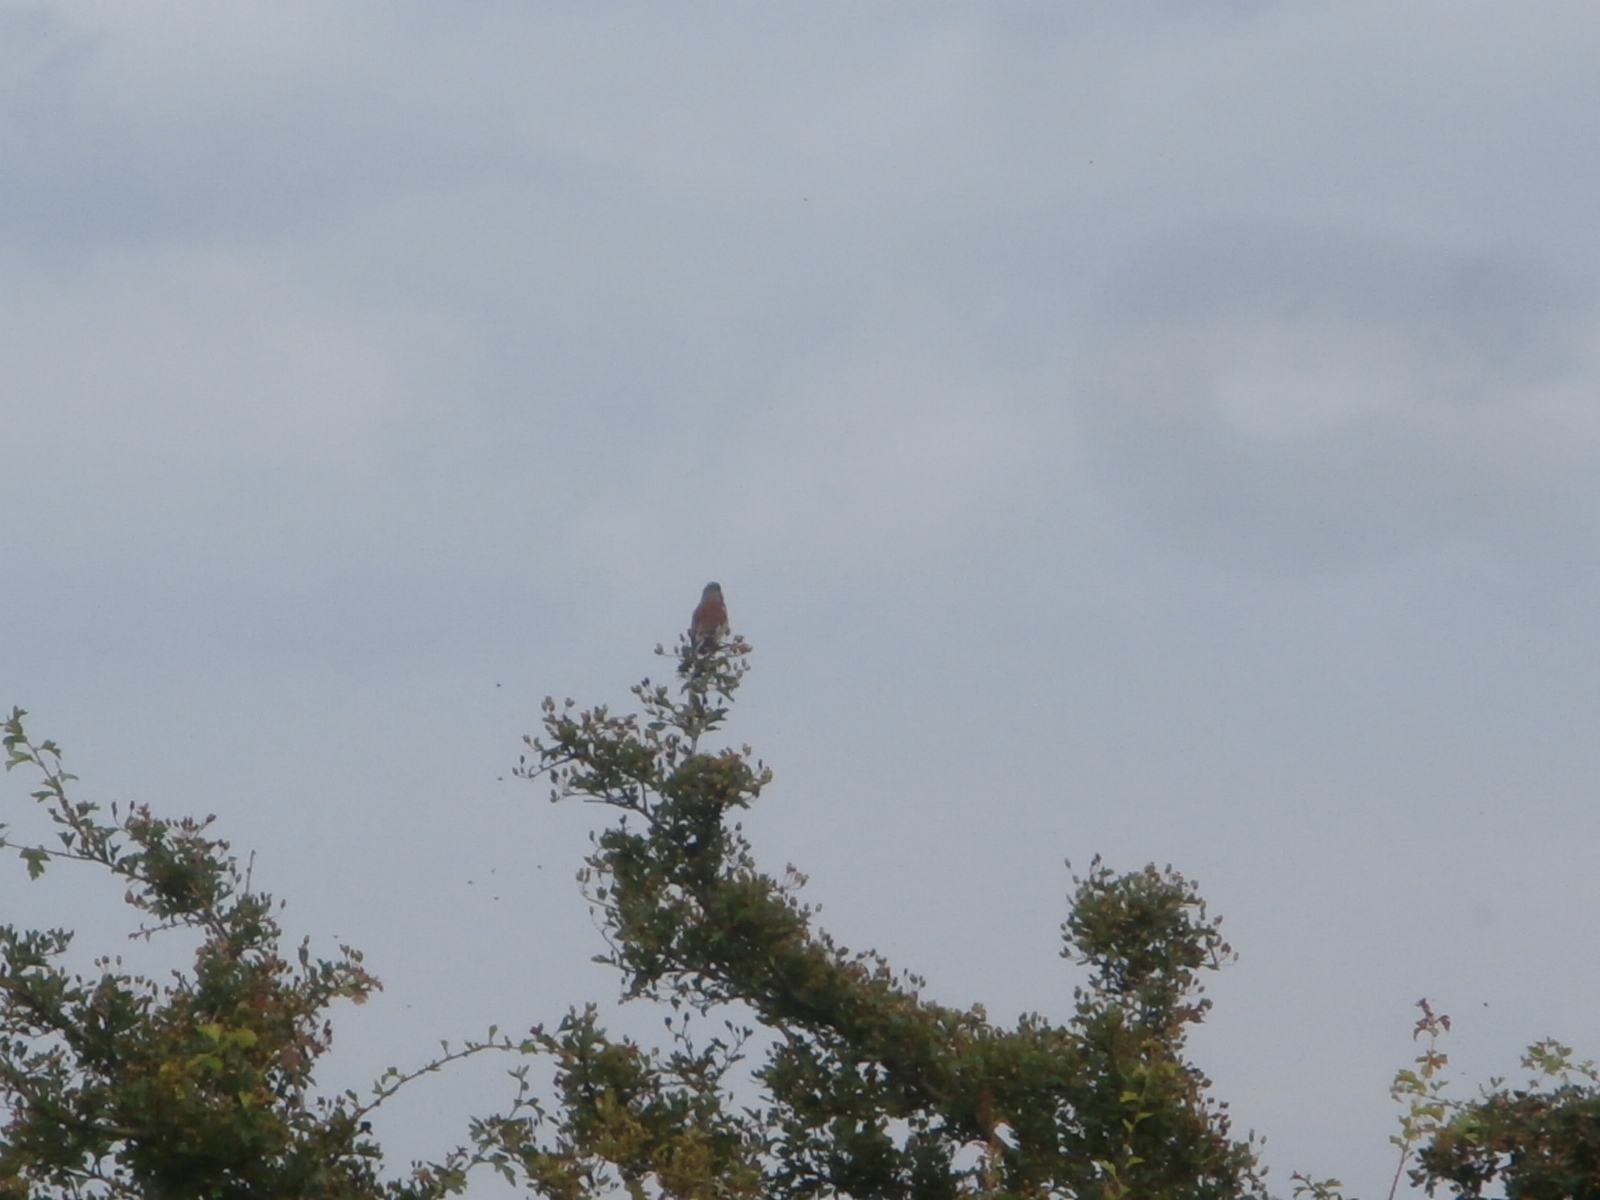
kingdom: Animalia
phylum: Chordata
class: Aves
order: Passeriformes
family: Fringillidae
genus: Linaria
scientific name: Linaria cannabina
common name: Common linnet
